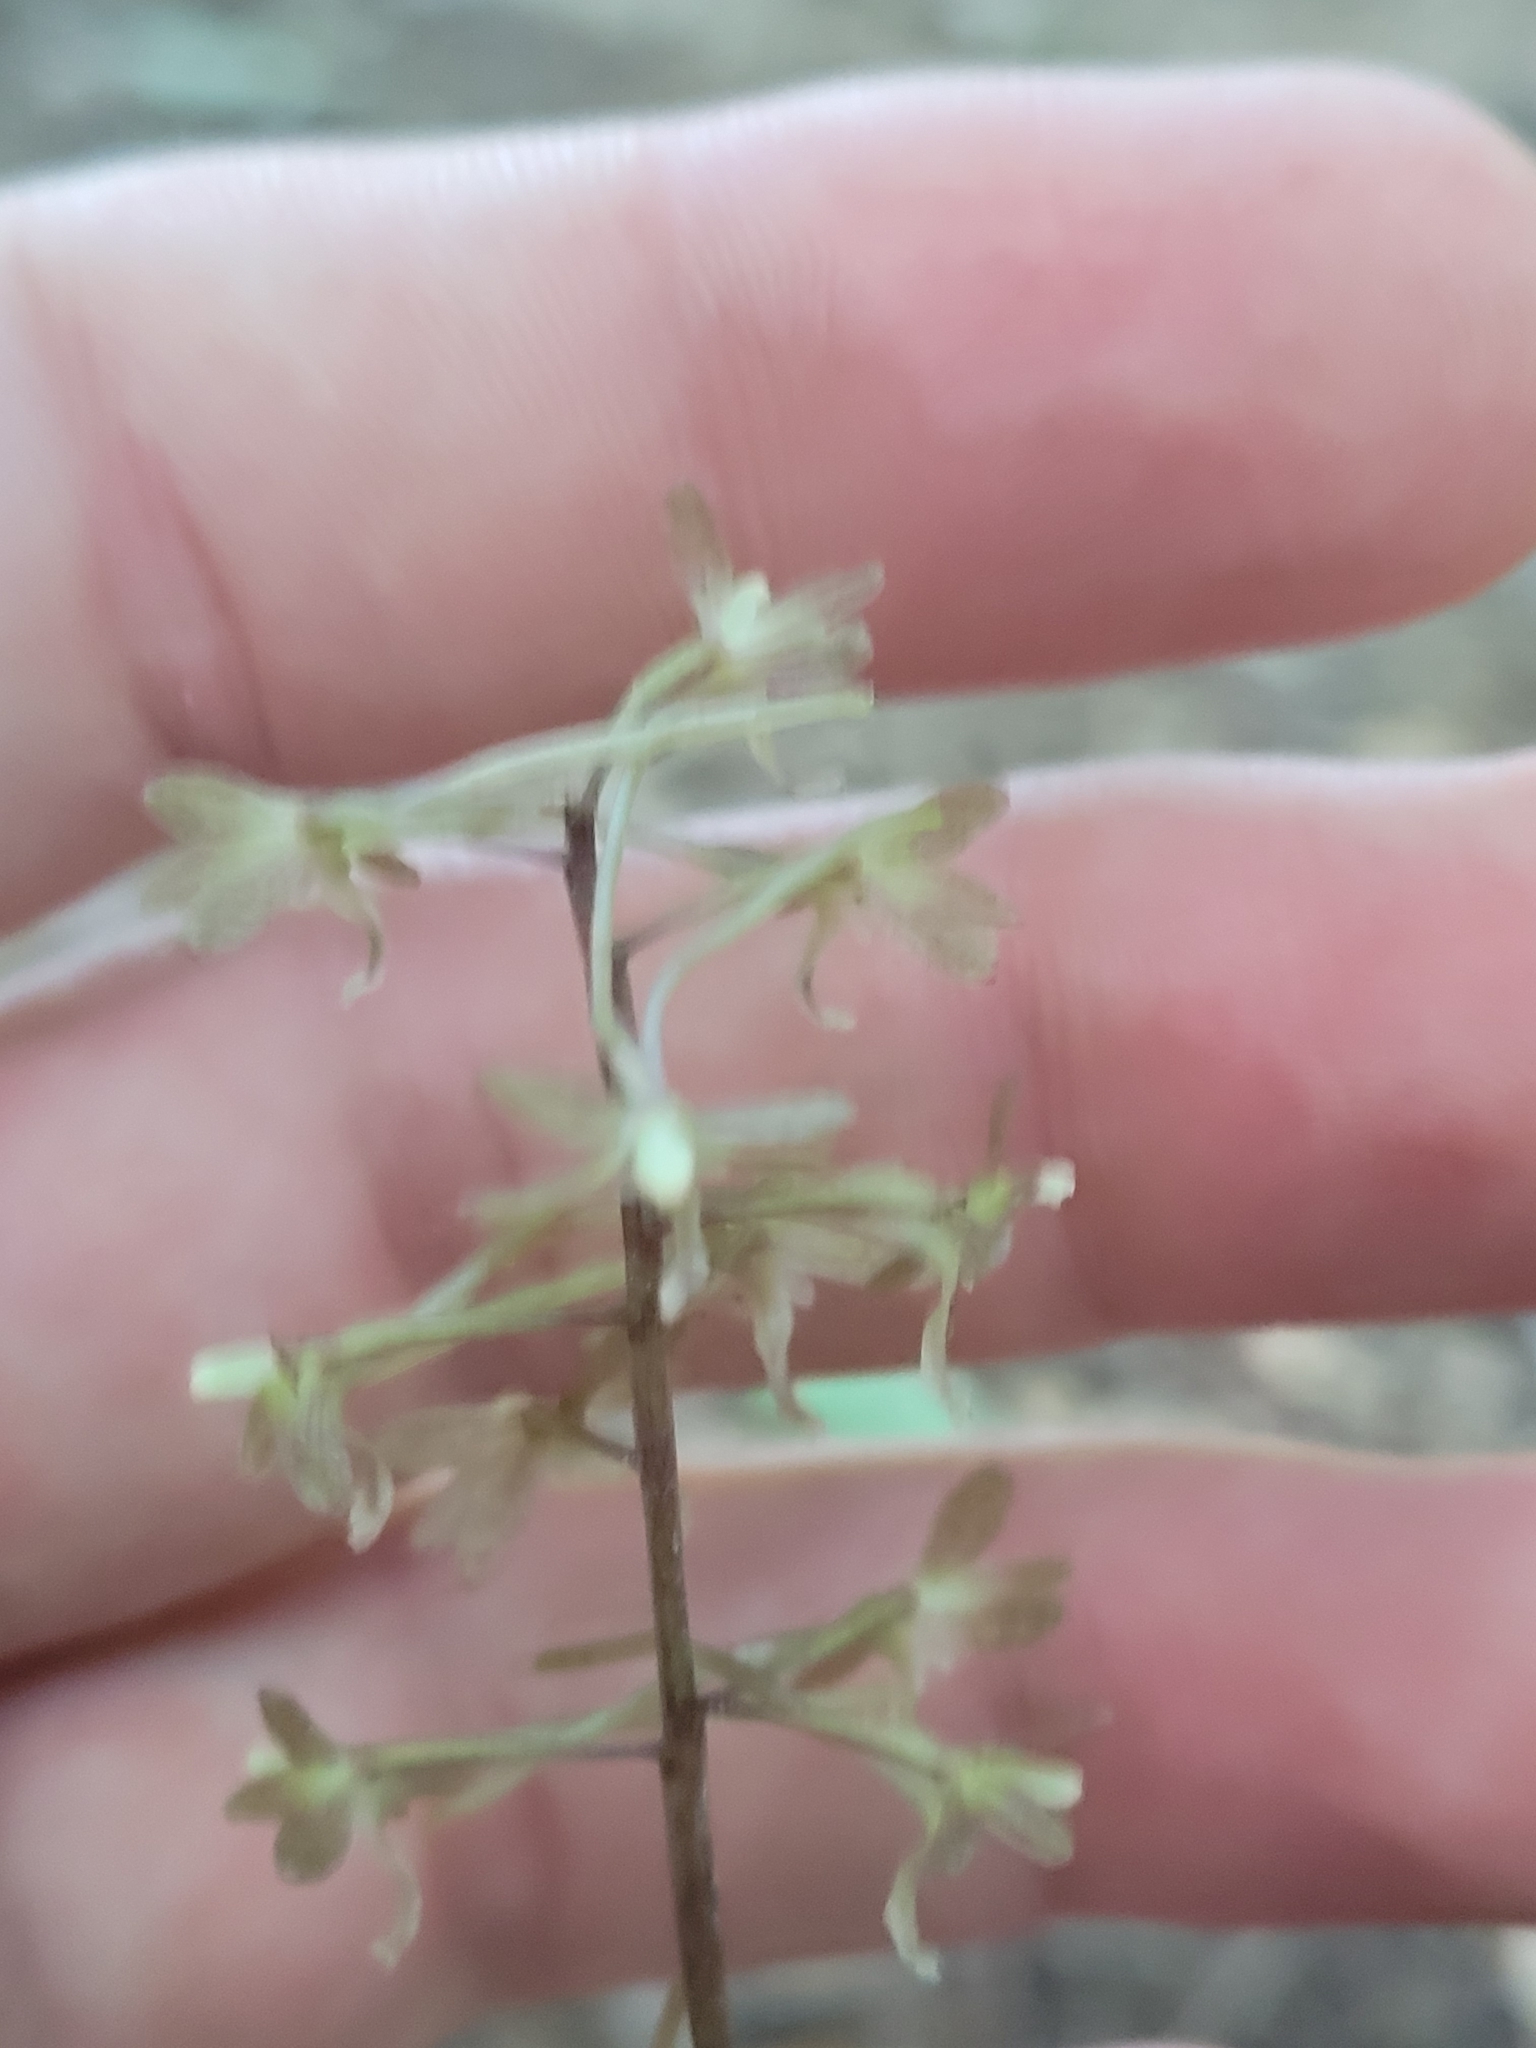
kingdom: Plantae
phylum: Tracheophyta
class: Liliopsida
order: Asparagales
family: Orchidaceae
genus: Tipularia
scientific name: Tipularia discolor
